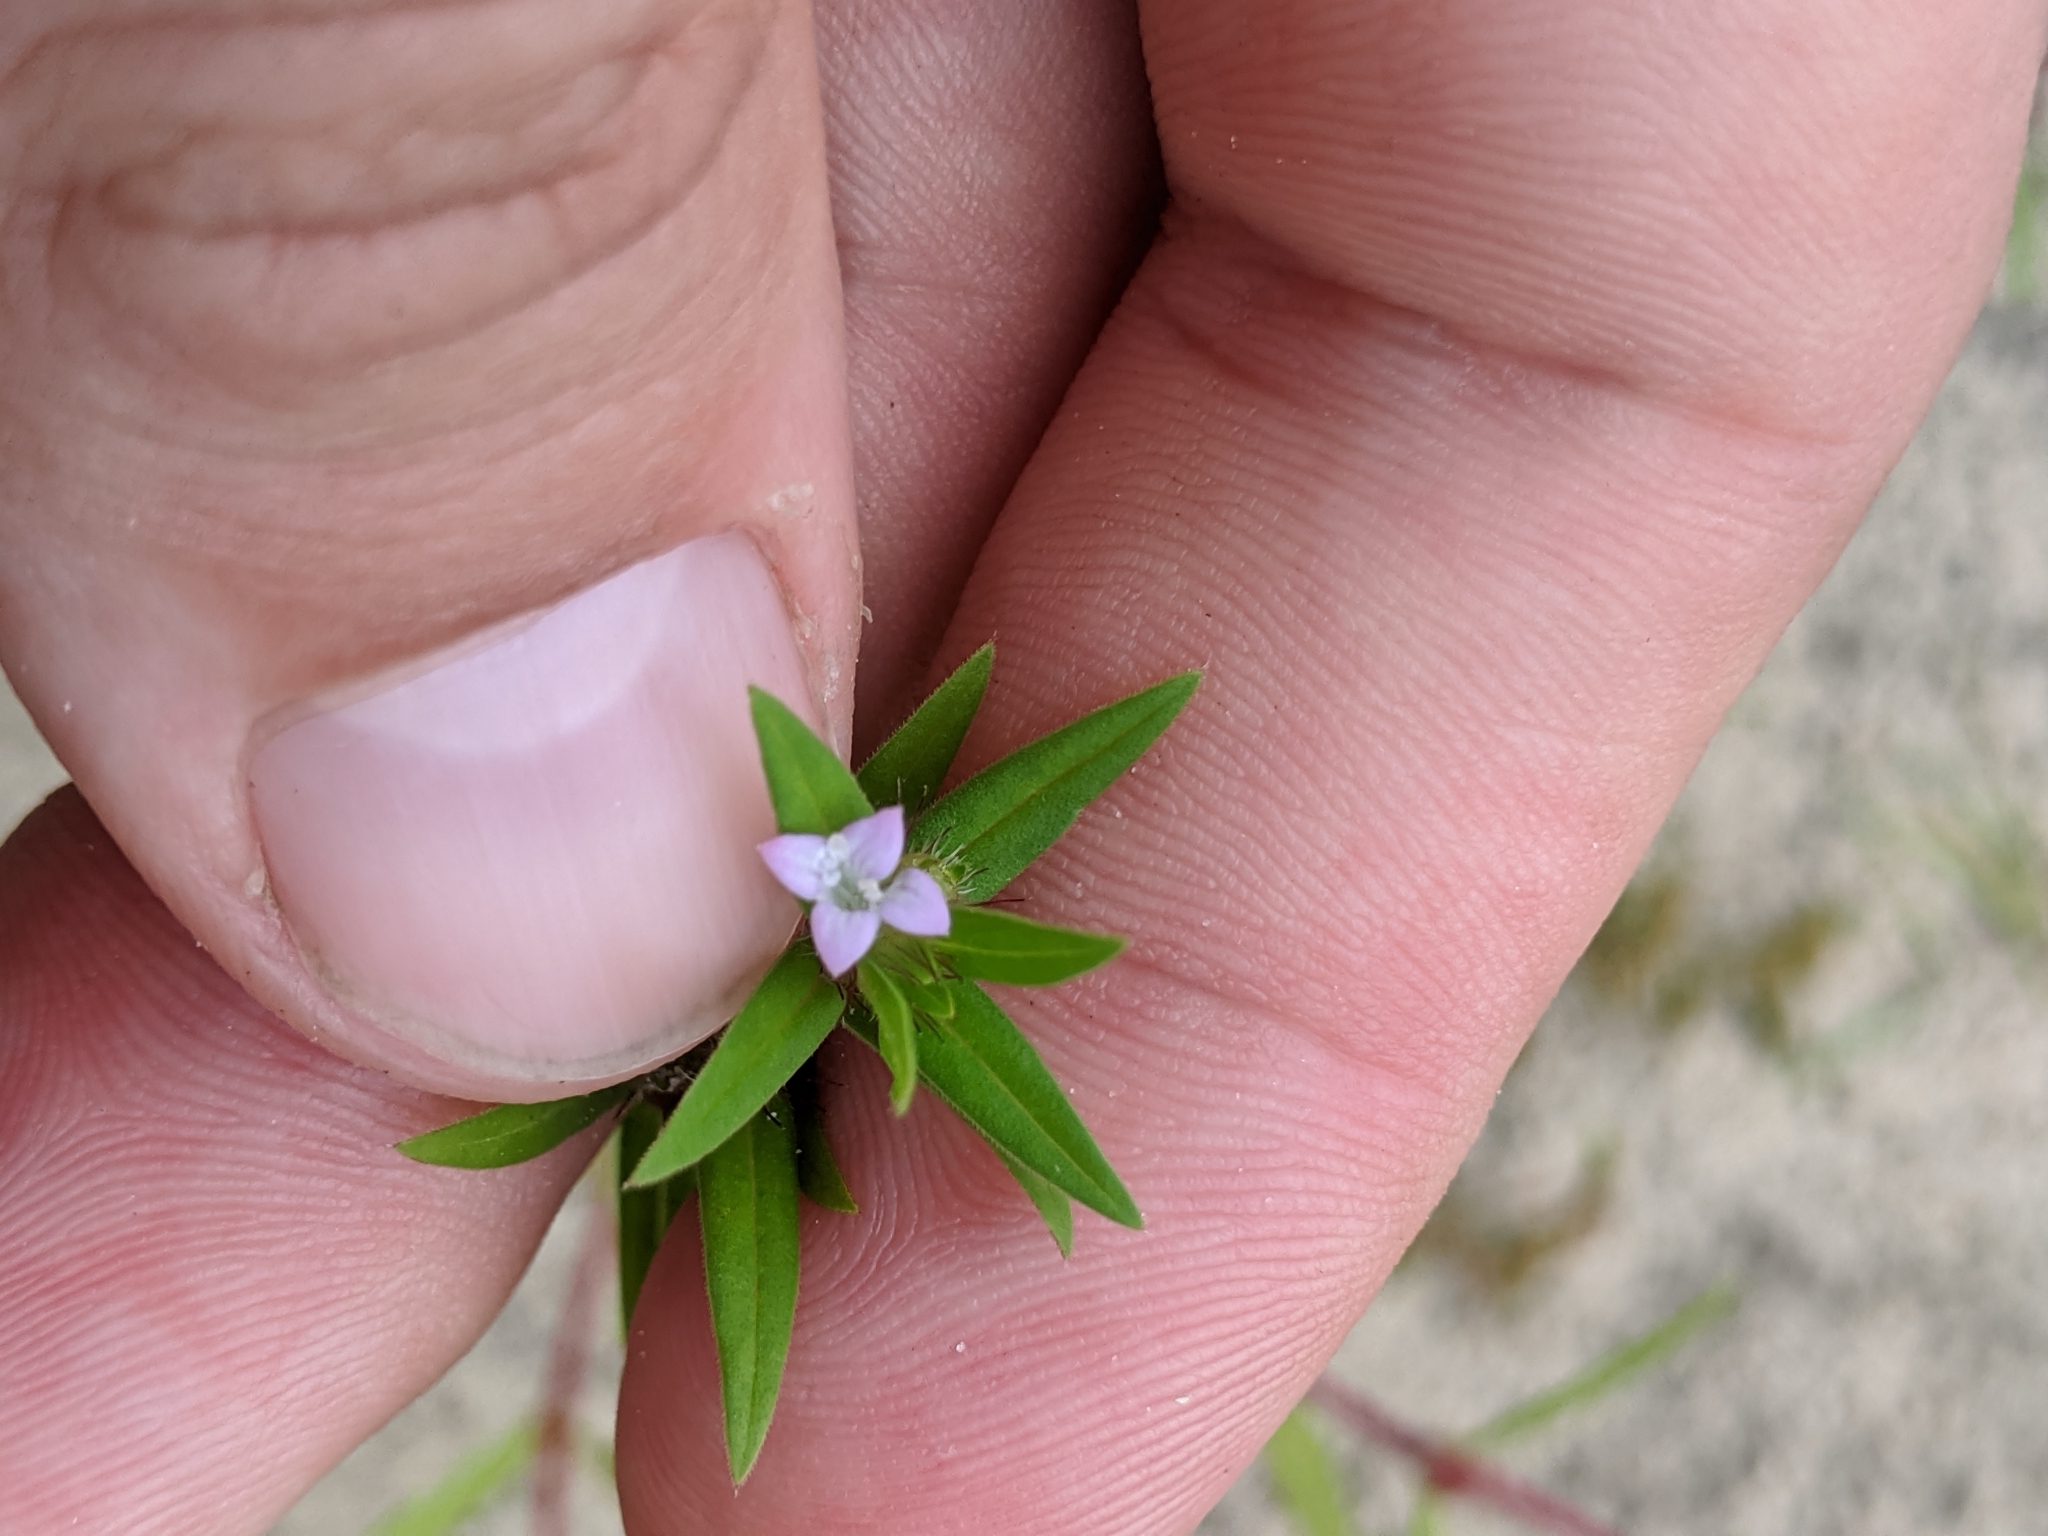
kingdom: Plantae
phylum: Tracheophyta
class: Magnoliopsida
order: Gentianales
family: Rubiaceae
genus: Hexasepalum
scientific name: Hexasepalum teres
